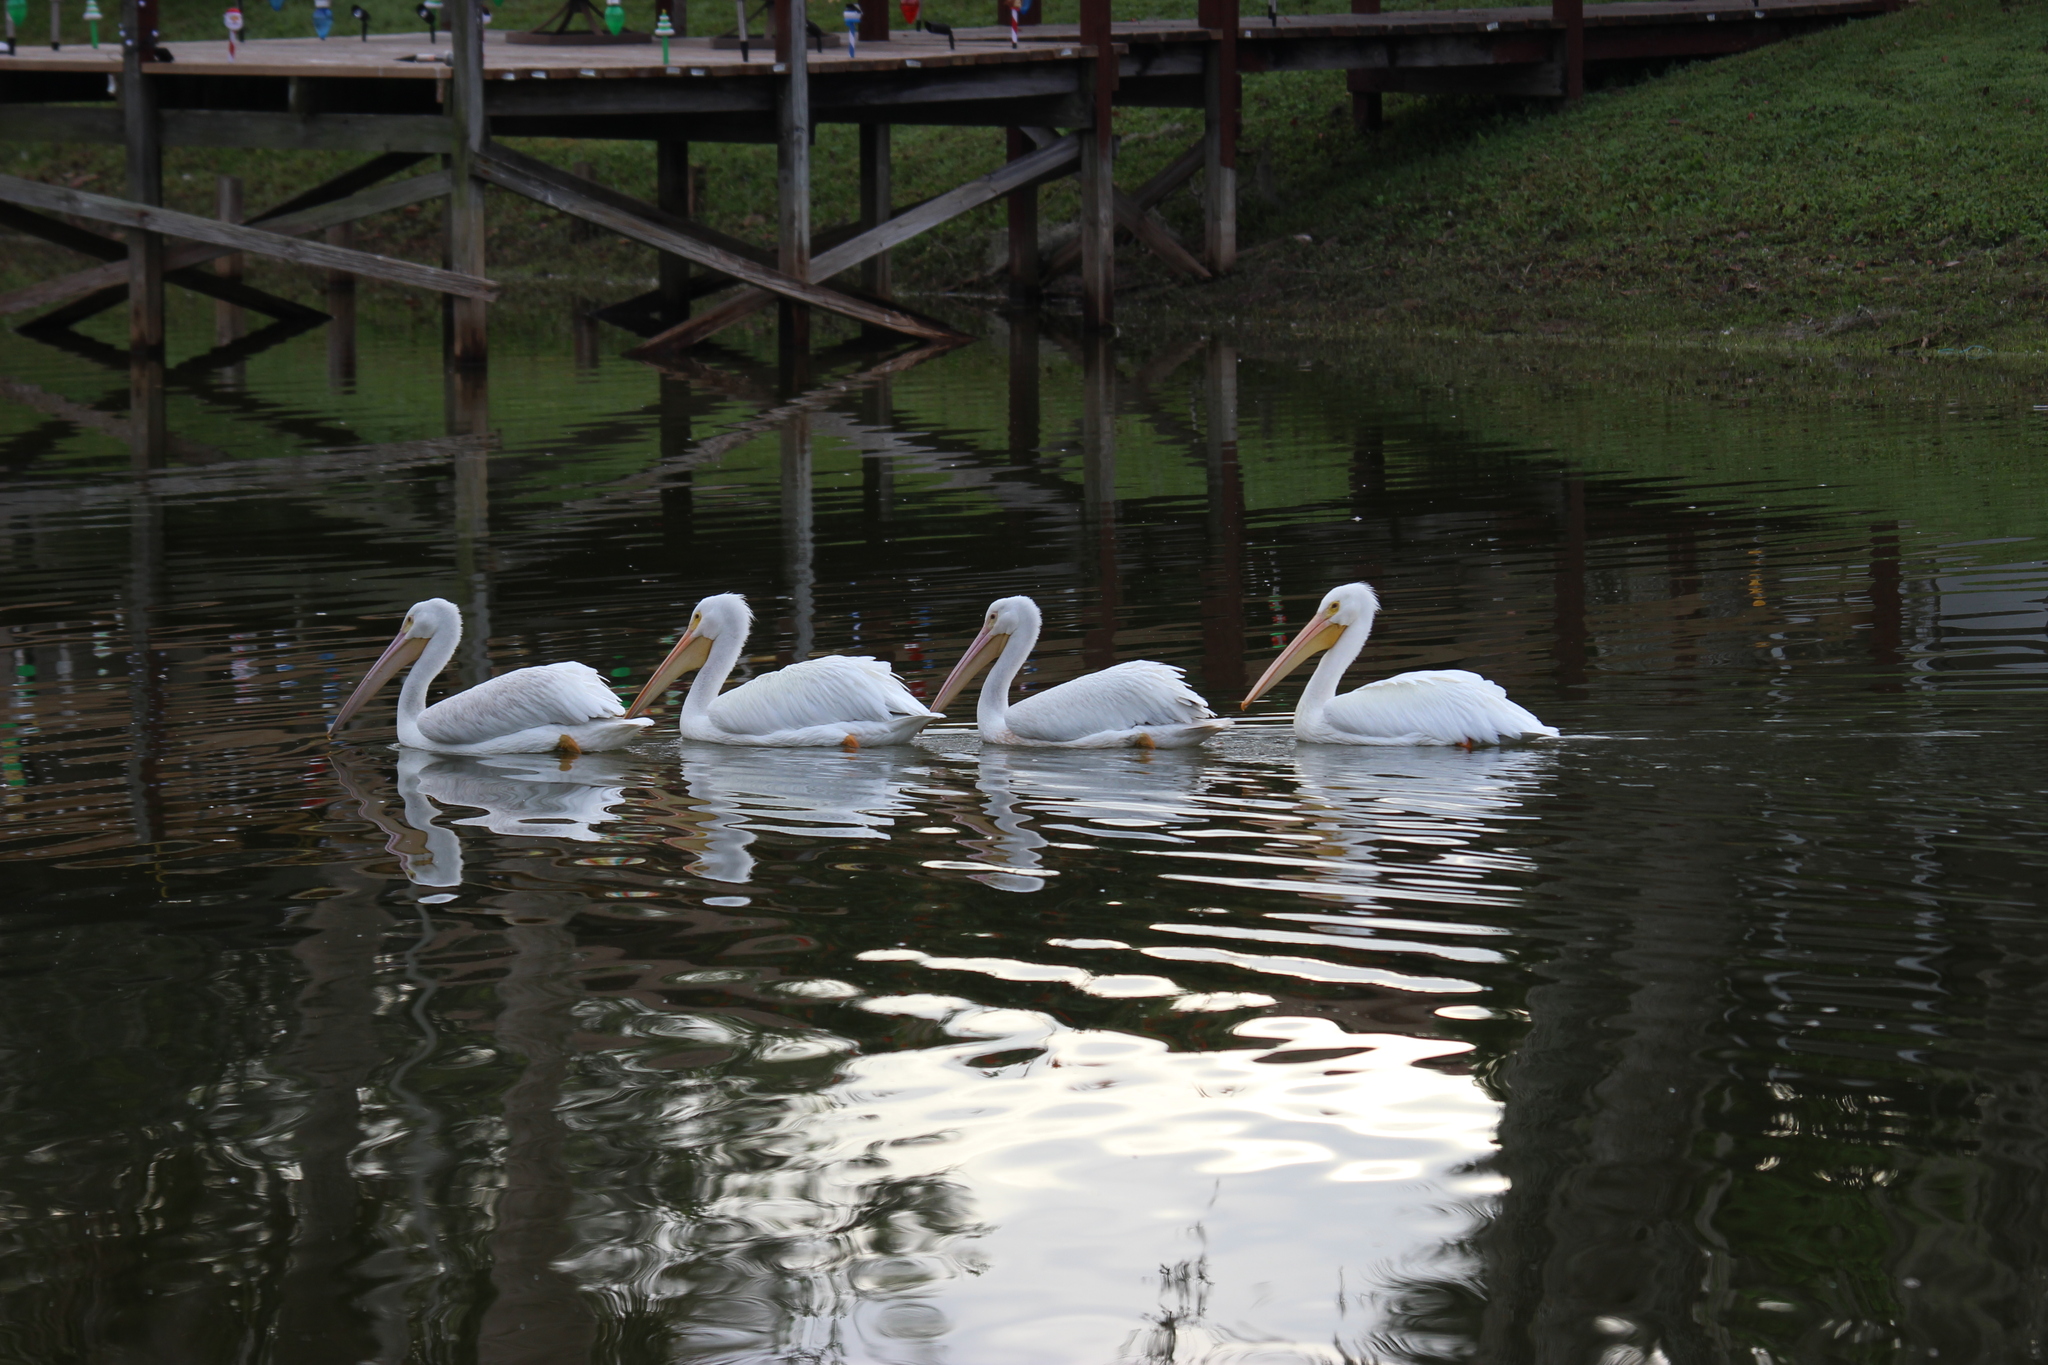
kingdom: Animalia
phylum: Chordata
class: Aves
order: Pelecaniformes
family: Pelecanidae
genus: Pelecanus
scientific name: Pelecanus erythrorhynchos
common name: American white pelican
